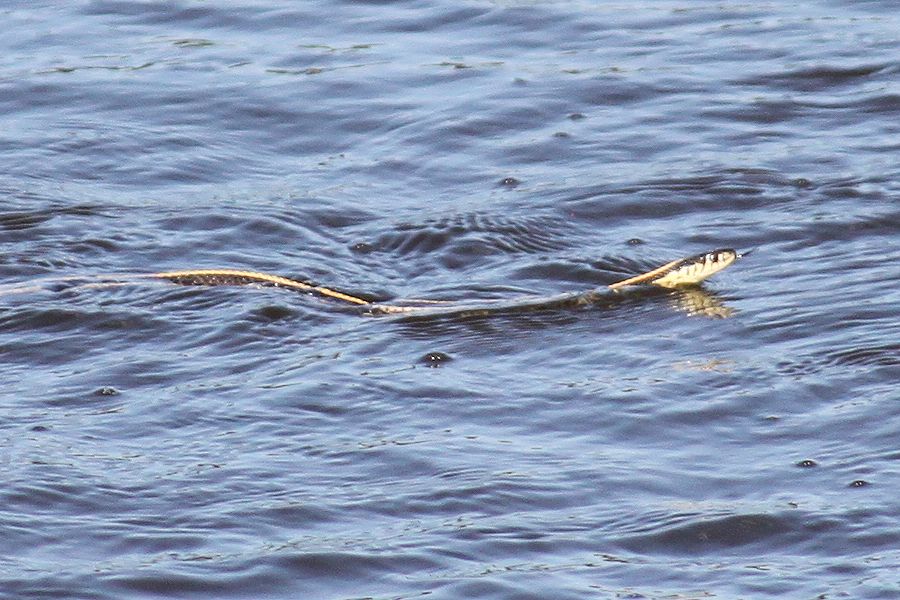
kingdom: Animalia
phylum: Chordata
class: Squamata
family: Colubridae
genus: Thamnophis
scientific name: Thamnophis radix
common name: Plains garter snake
